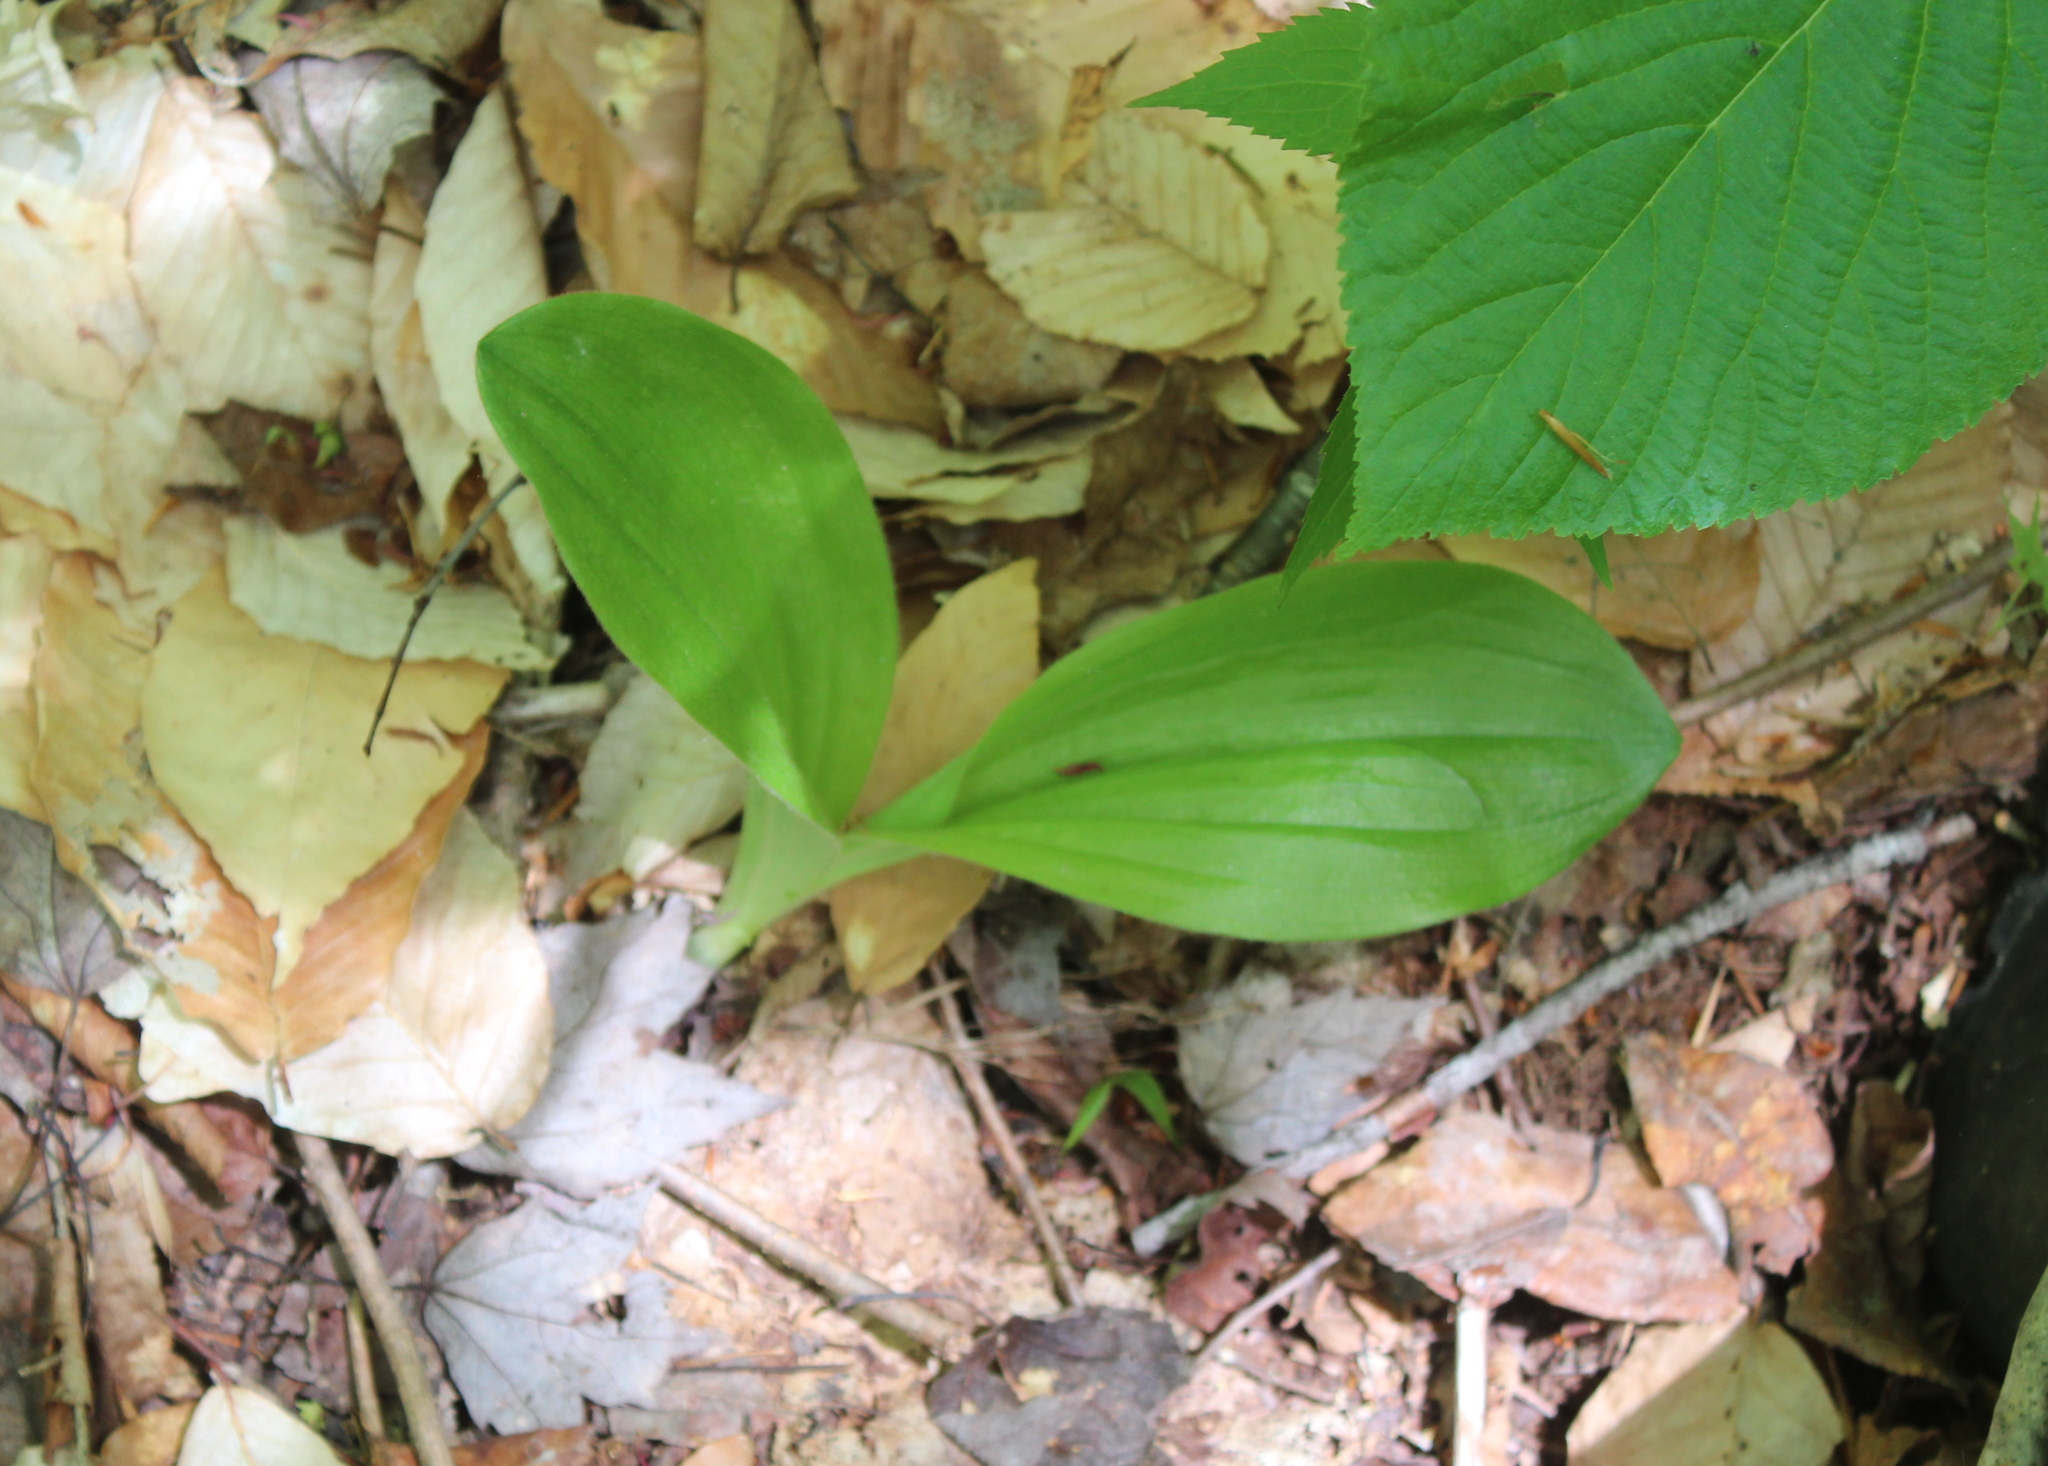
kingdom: Plantae
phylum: Tracheophyta
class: Liliopsida
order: Asparagales
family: Orchidaceae
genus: Cypripedium
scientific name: Cypripedium acaule
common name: Pink lady's-slipper
